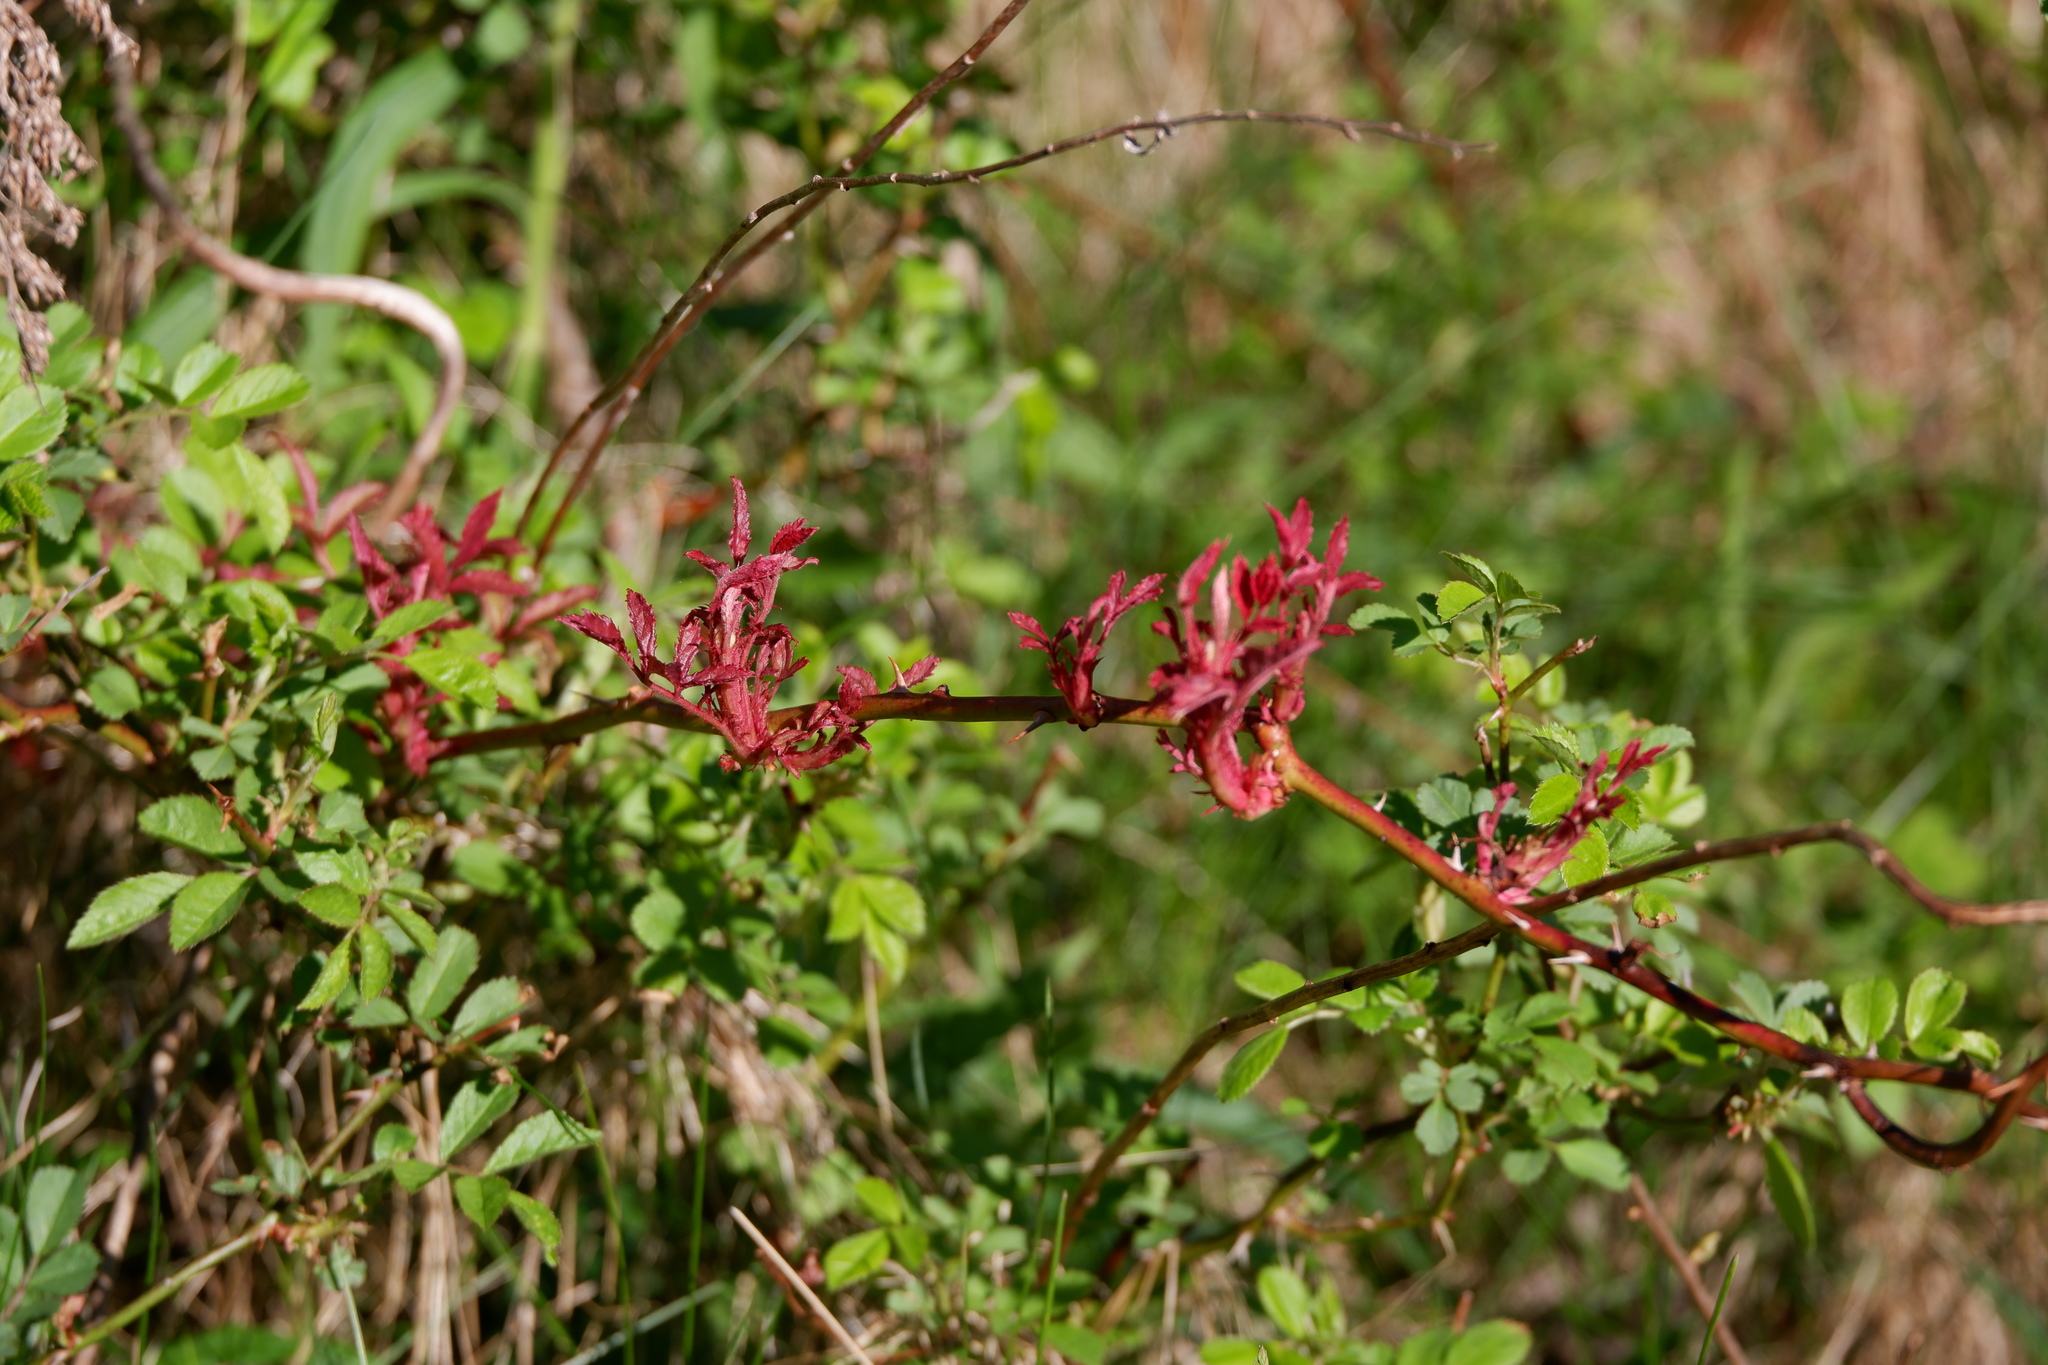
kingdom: Viruses
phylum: Negarnaviricota
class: Ellioviricetes
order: Bunyavirales
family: Fimoviridae
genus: Emaravirus
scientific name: Emaravirus rosae
